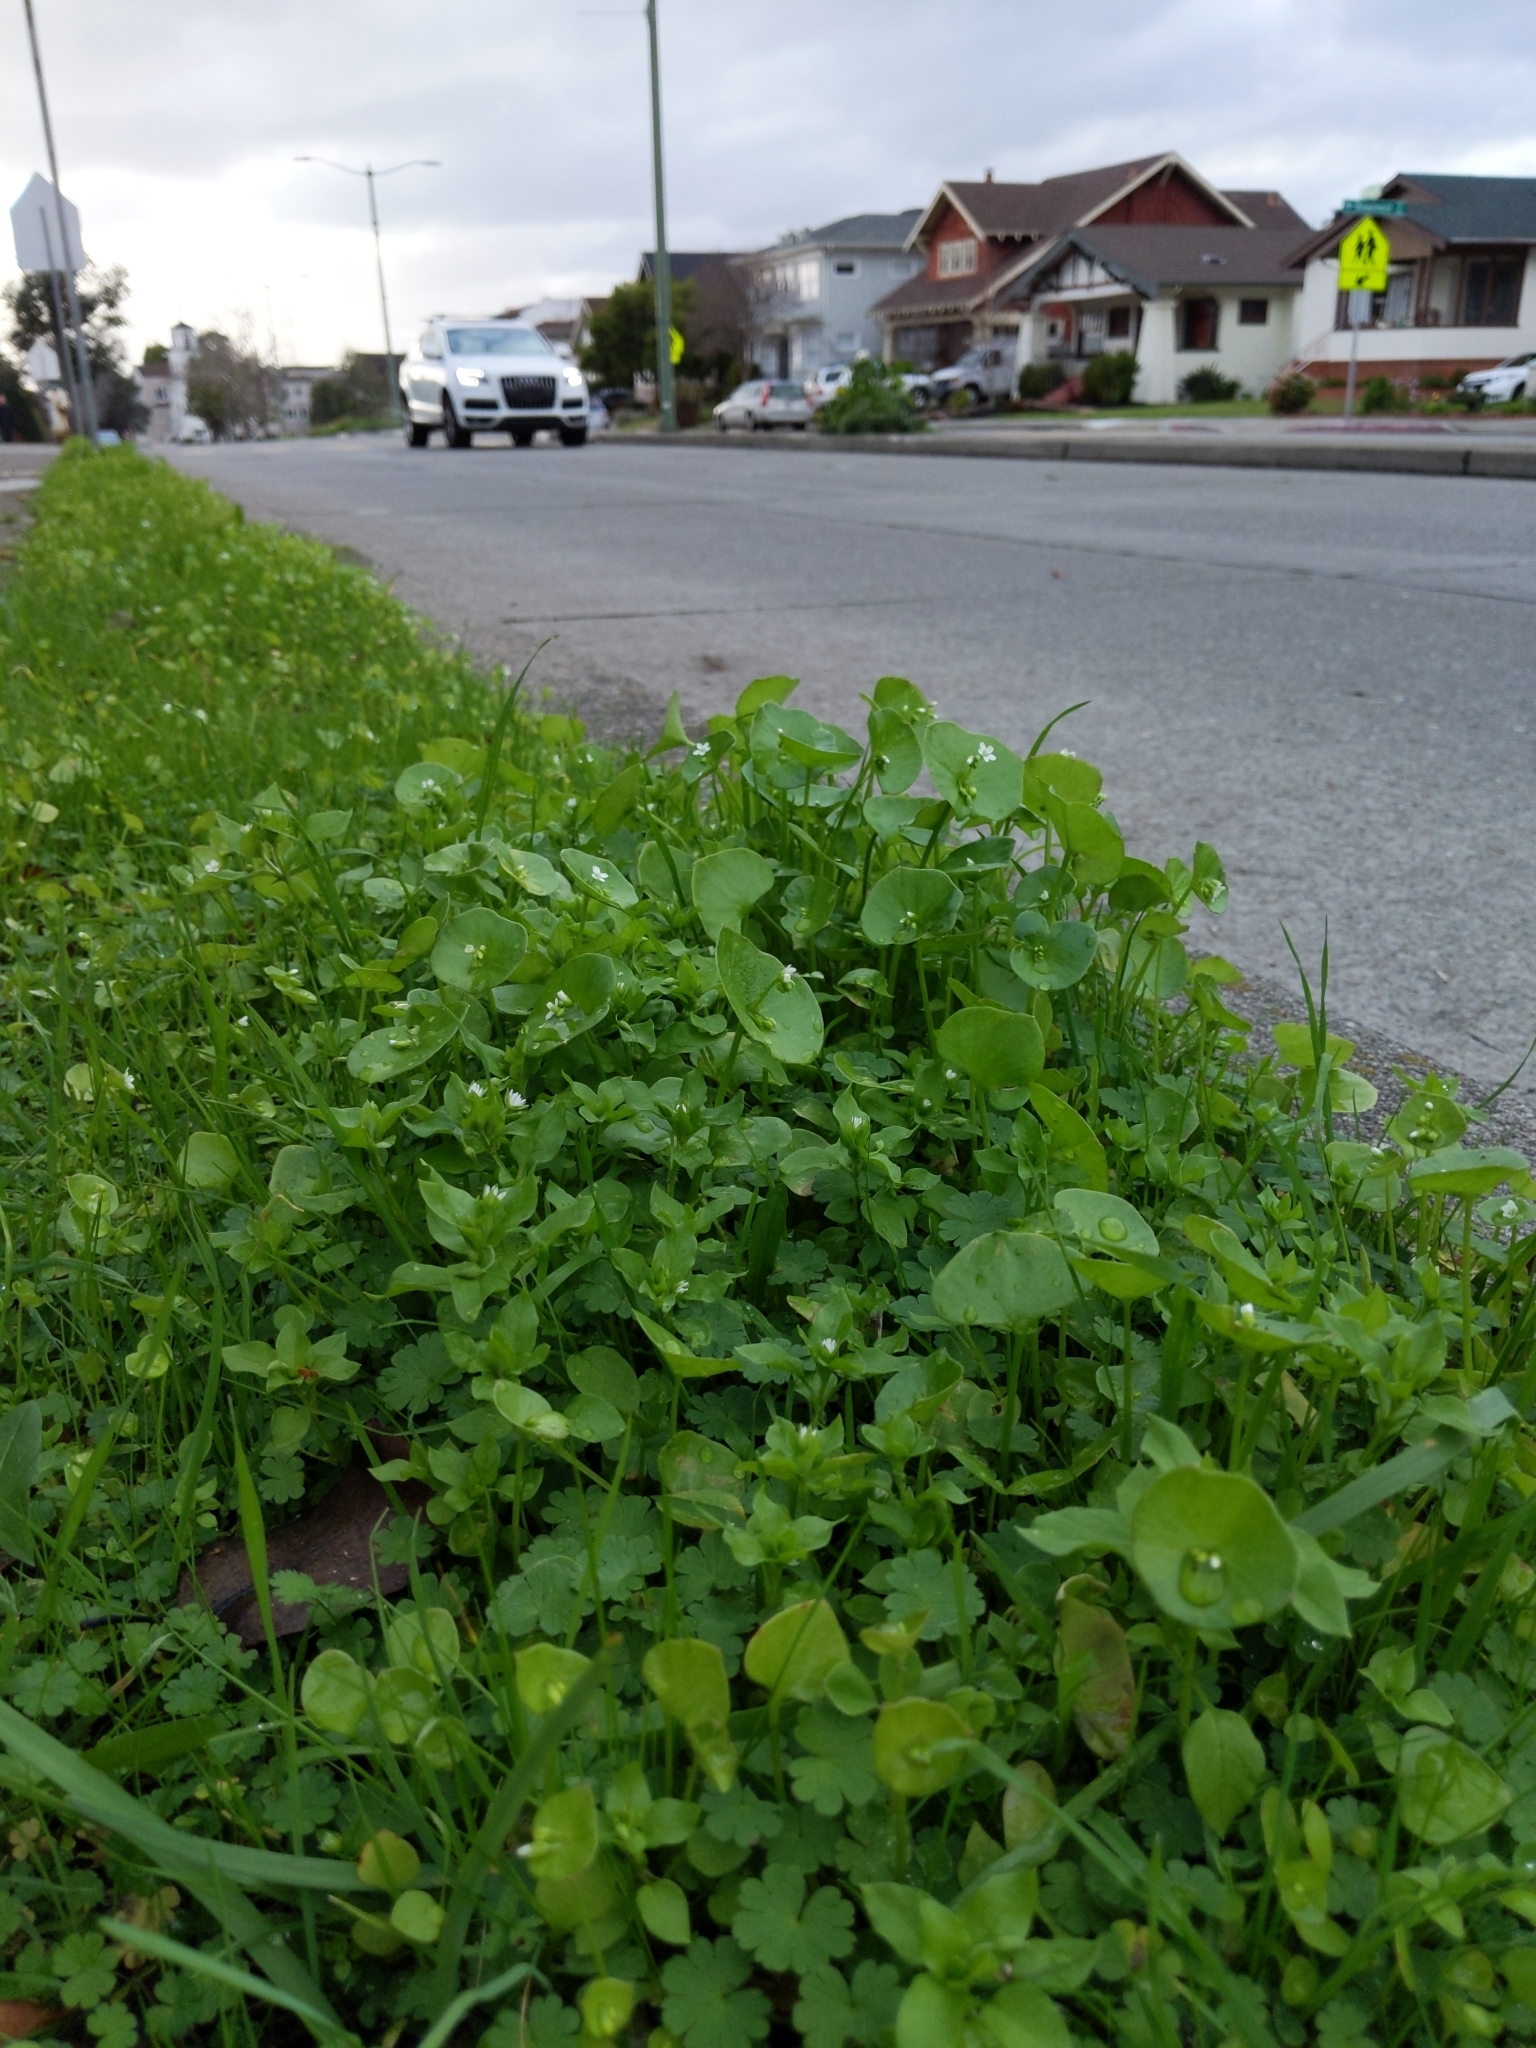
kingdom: Plantae
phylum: Tracheophyta
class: Magnoliopsida
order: Caryophyllales
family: Montiaceae
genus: Claytonia
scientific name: Claytonia perfoliata
